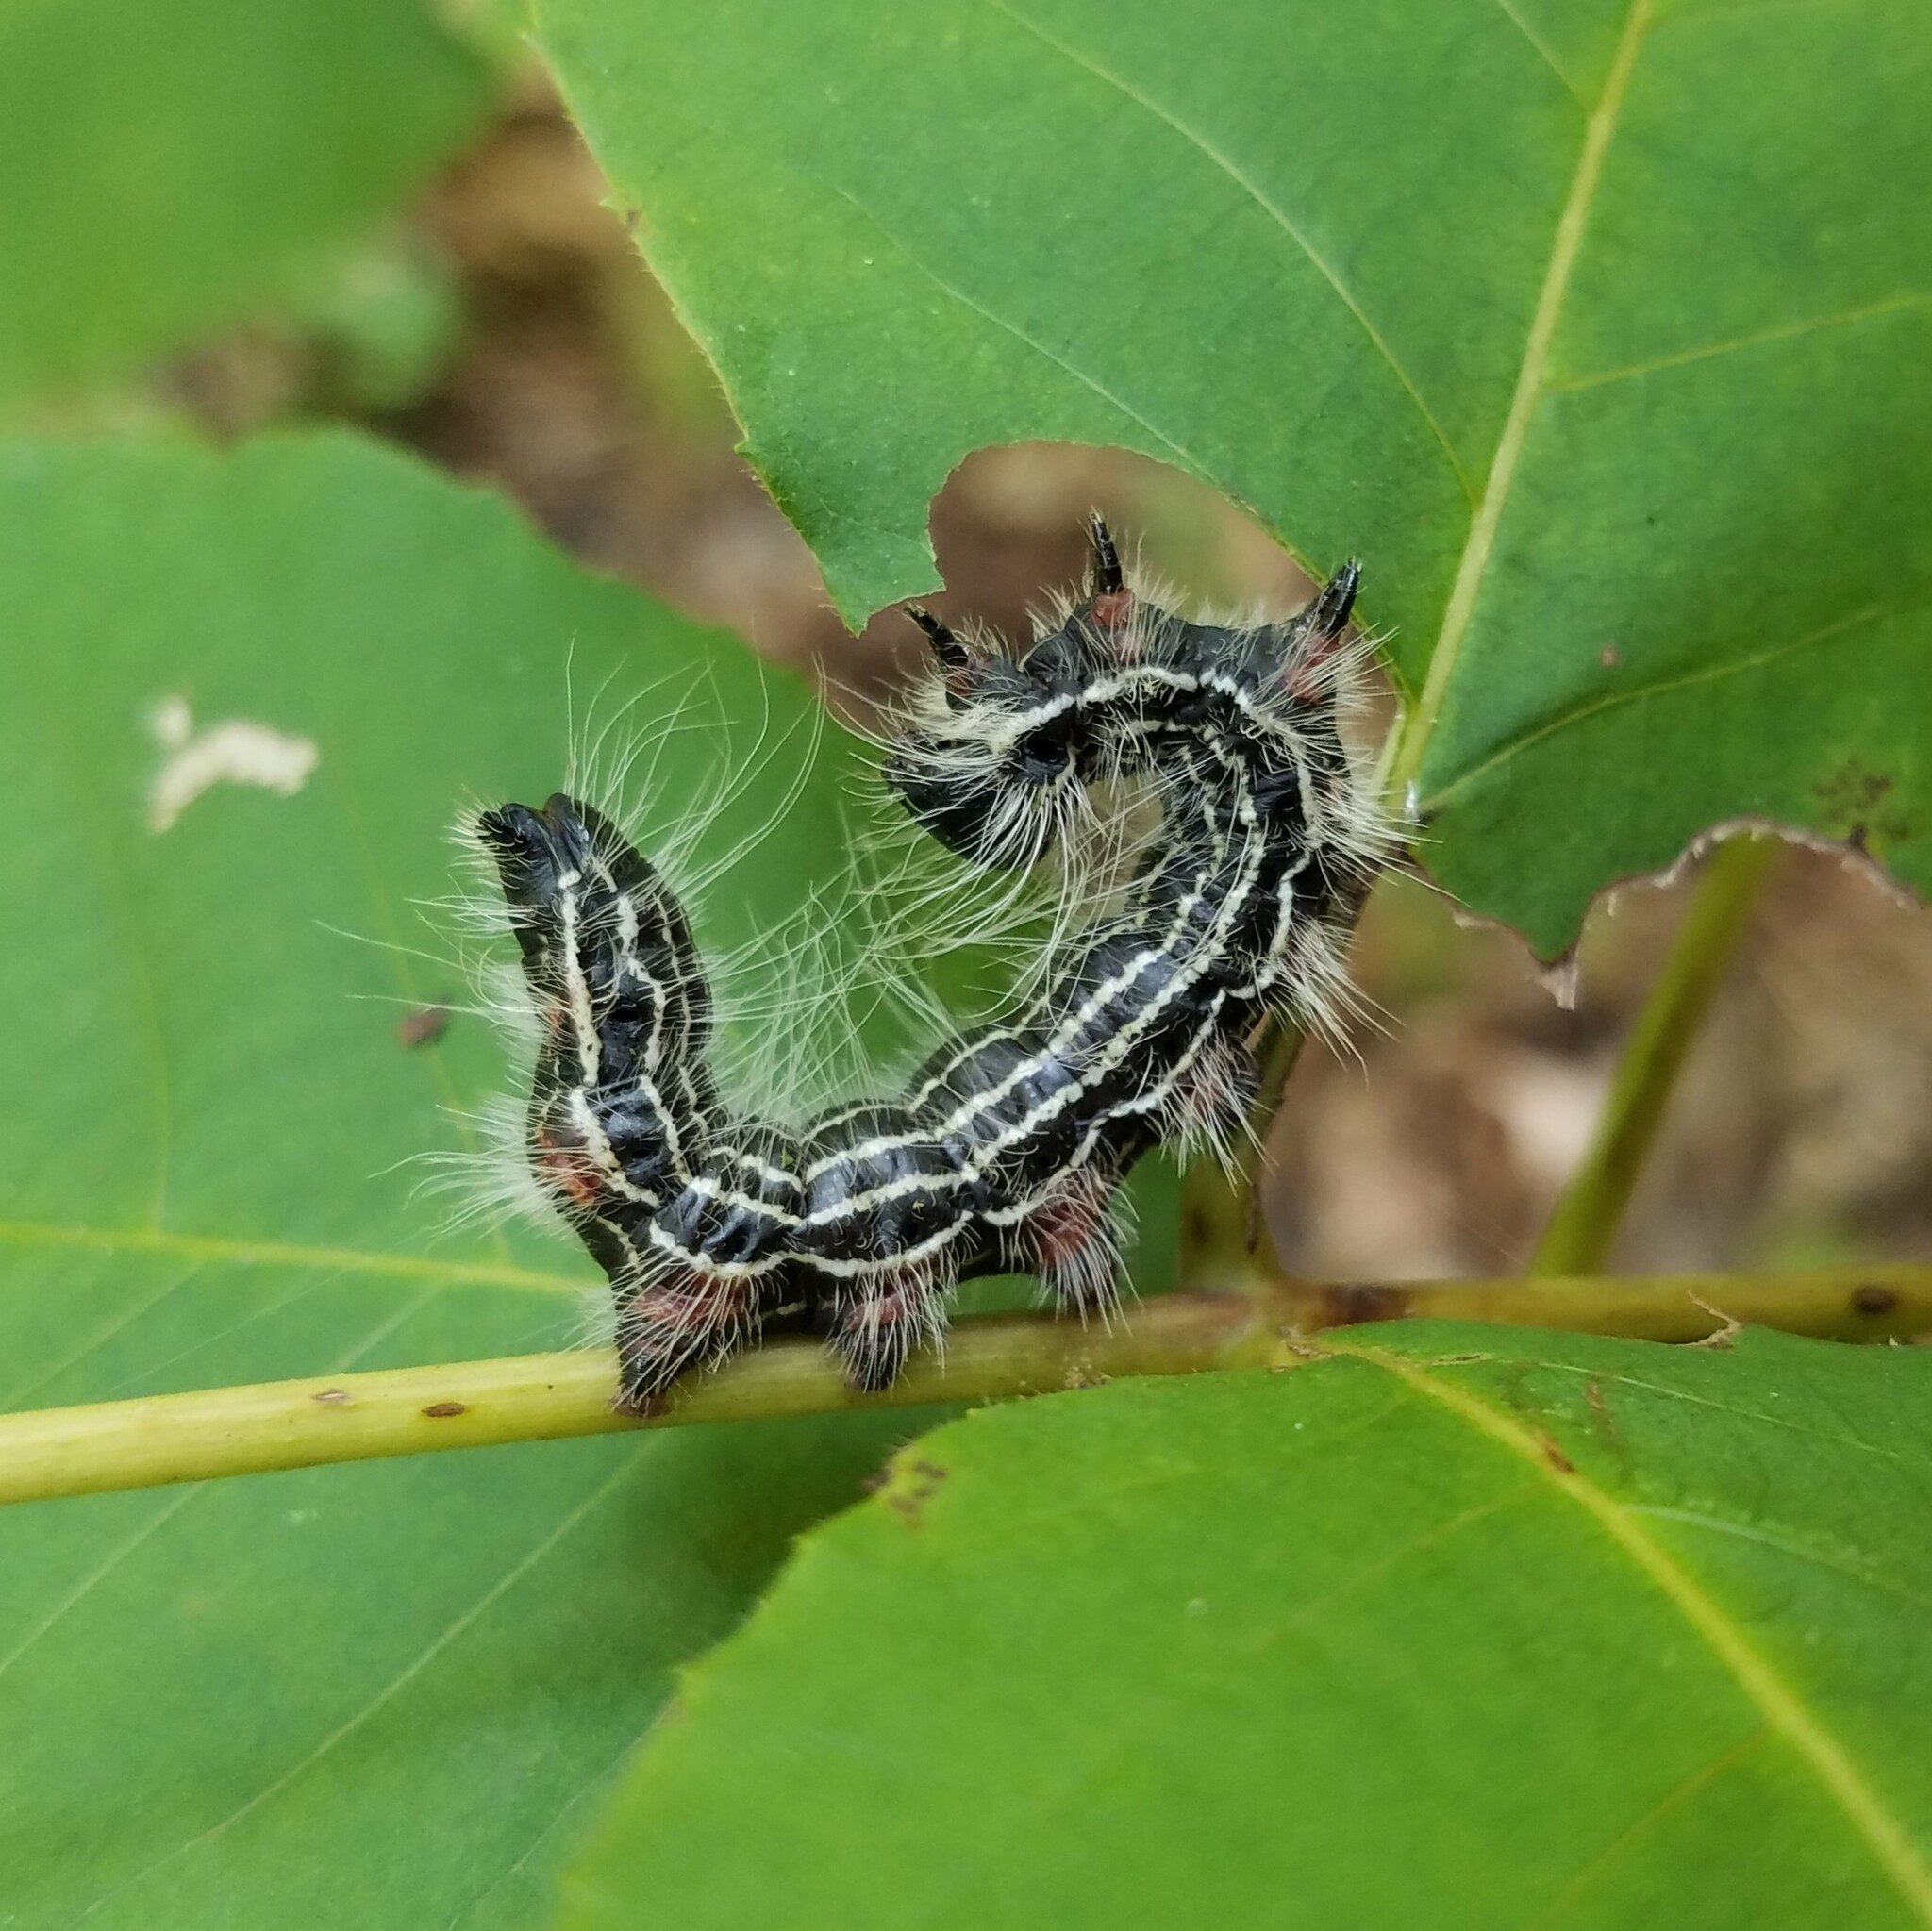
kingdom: Animalia
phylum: Arthropoda
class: Insecta
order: Lepidoptera
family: Notodontidae
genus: Datana
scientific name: Datana integerrima
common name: Walnut caterpillar
